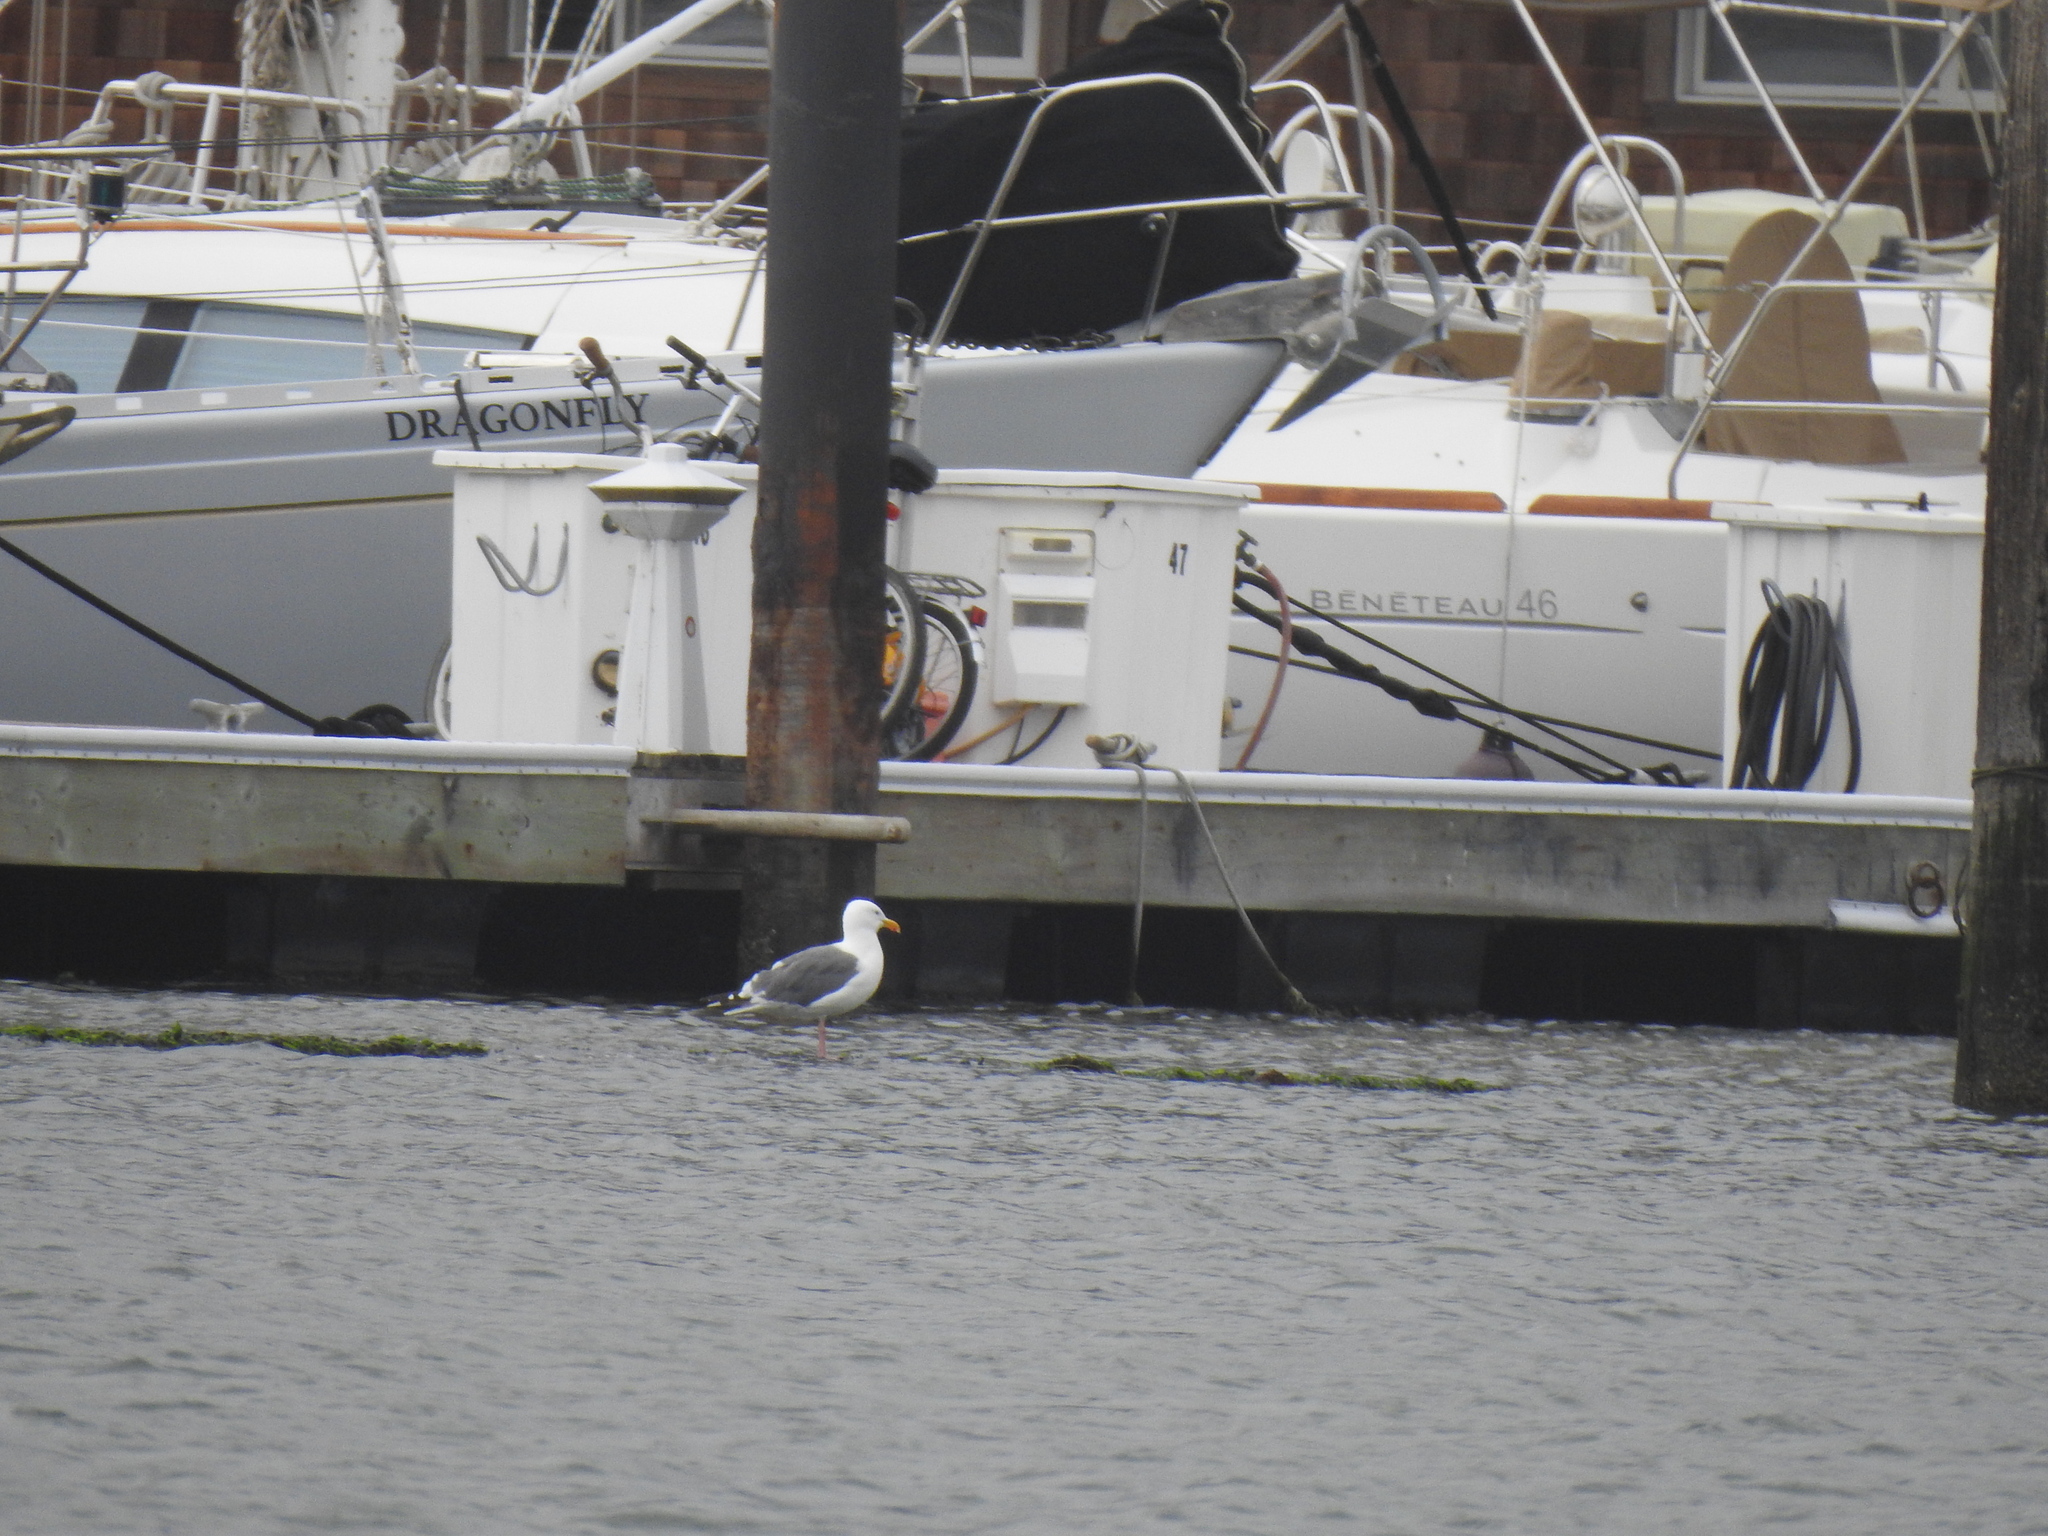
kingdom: Animalia
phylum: Chordata
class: Aves
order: Charadriiformes
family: Laridae
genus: Larus
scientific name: Larus occidentalis
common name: Western gull
